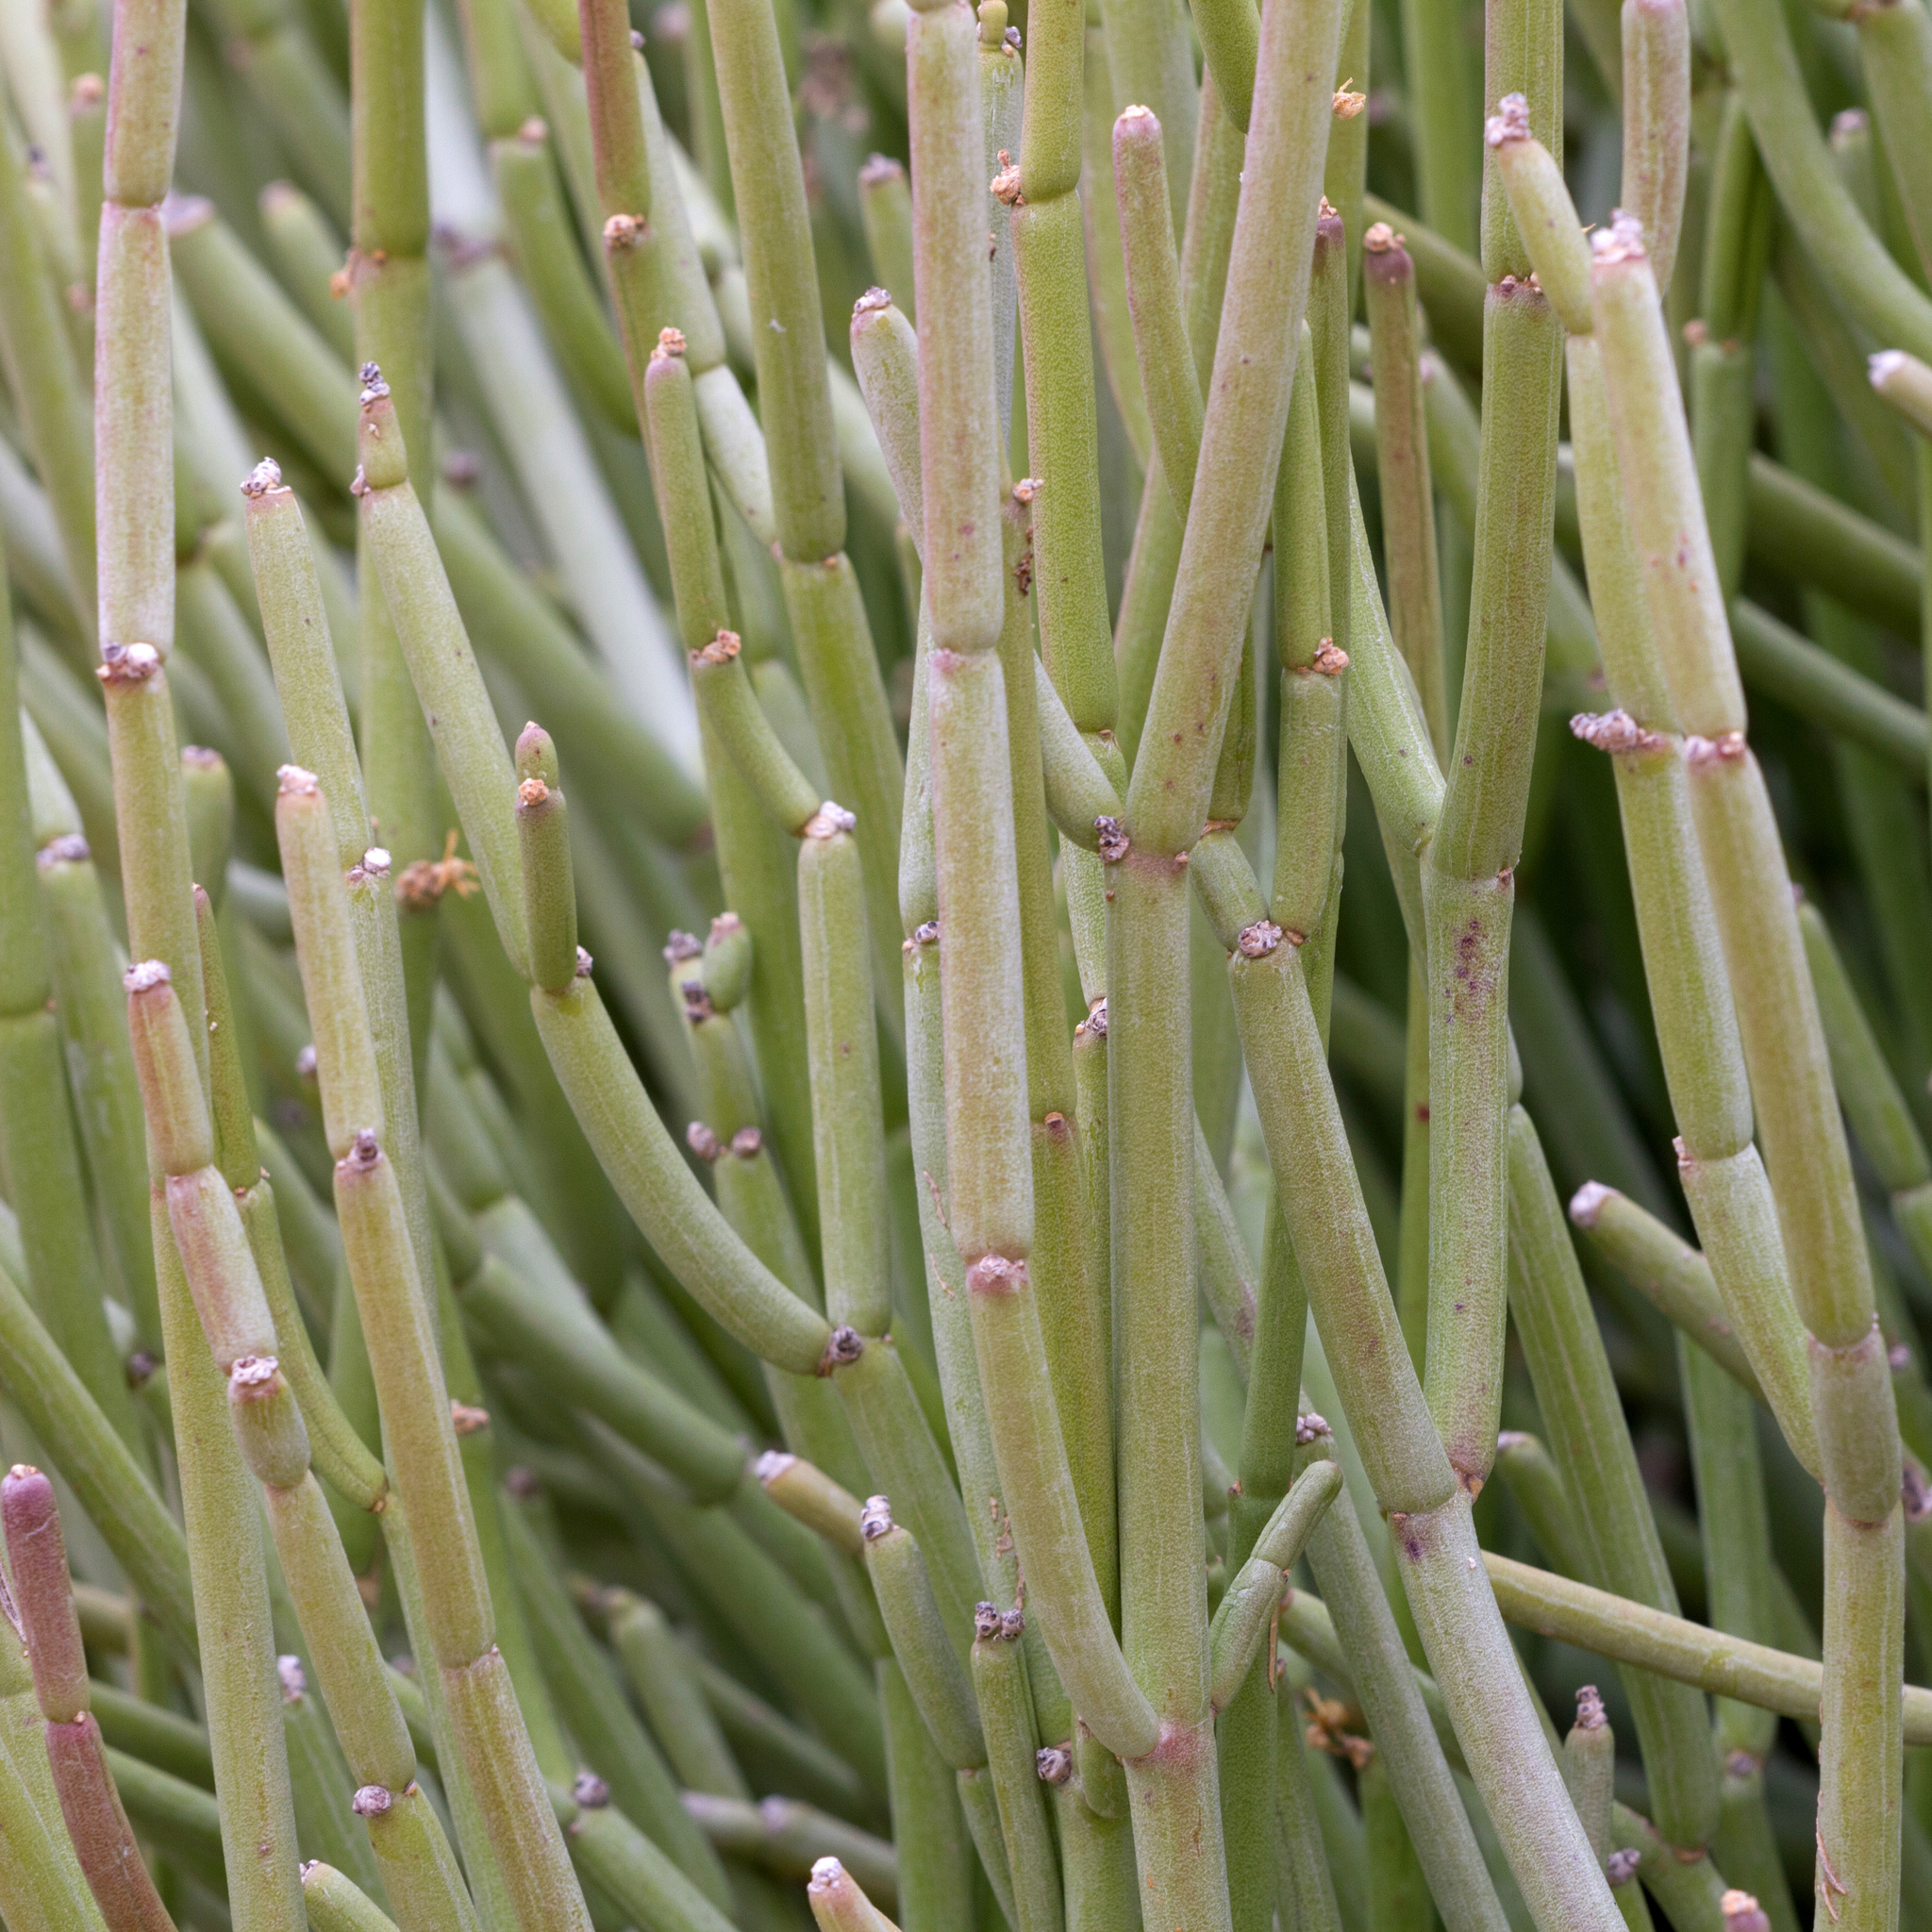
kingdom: Plantae
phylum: Tracheophyta
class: Magnoliopsida
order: Gentianales
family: Apocynaceae
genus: Cynanchum
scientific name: Cynanchum viminale
